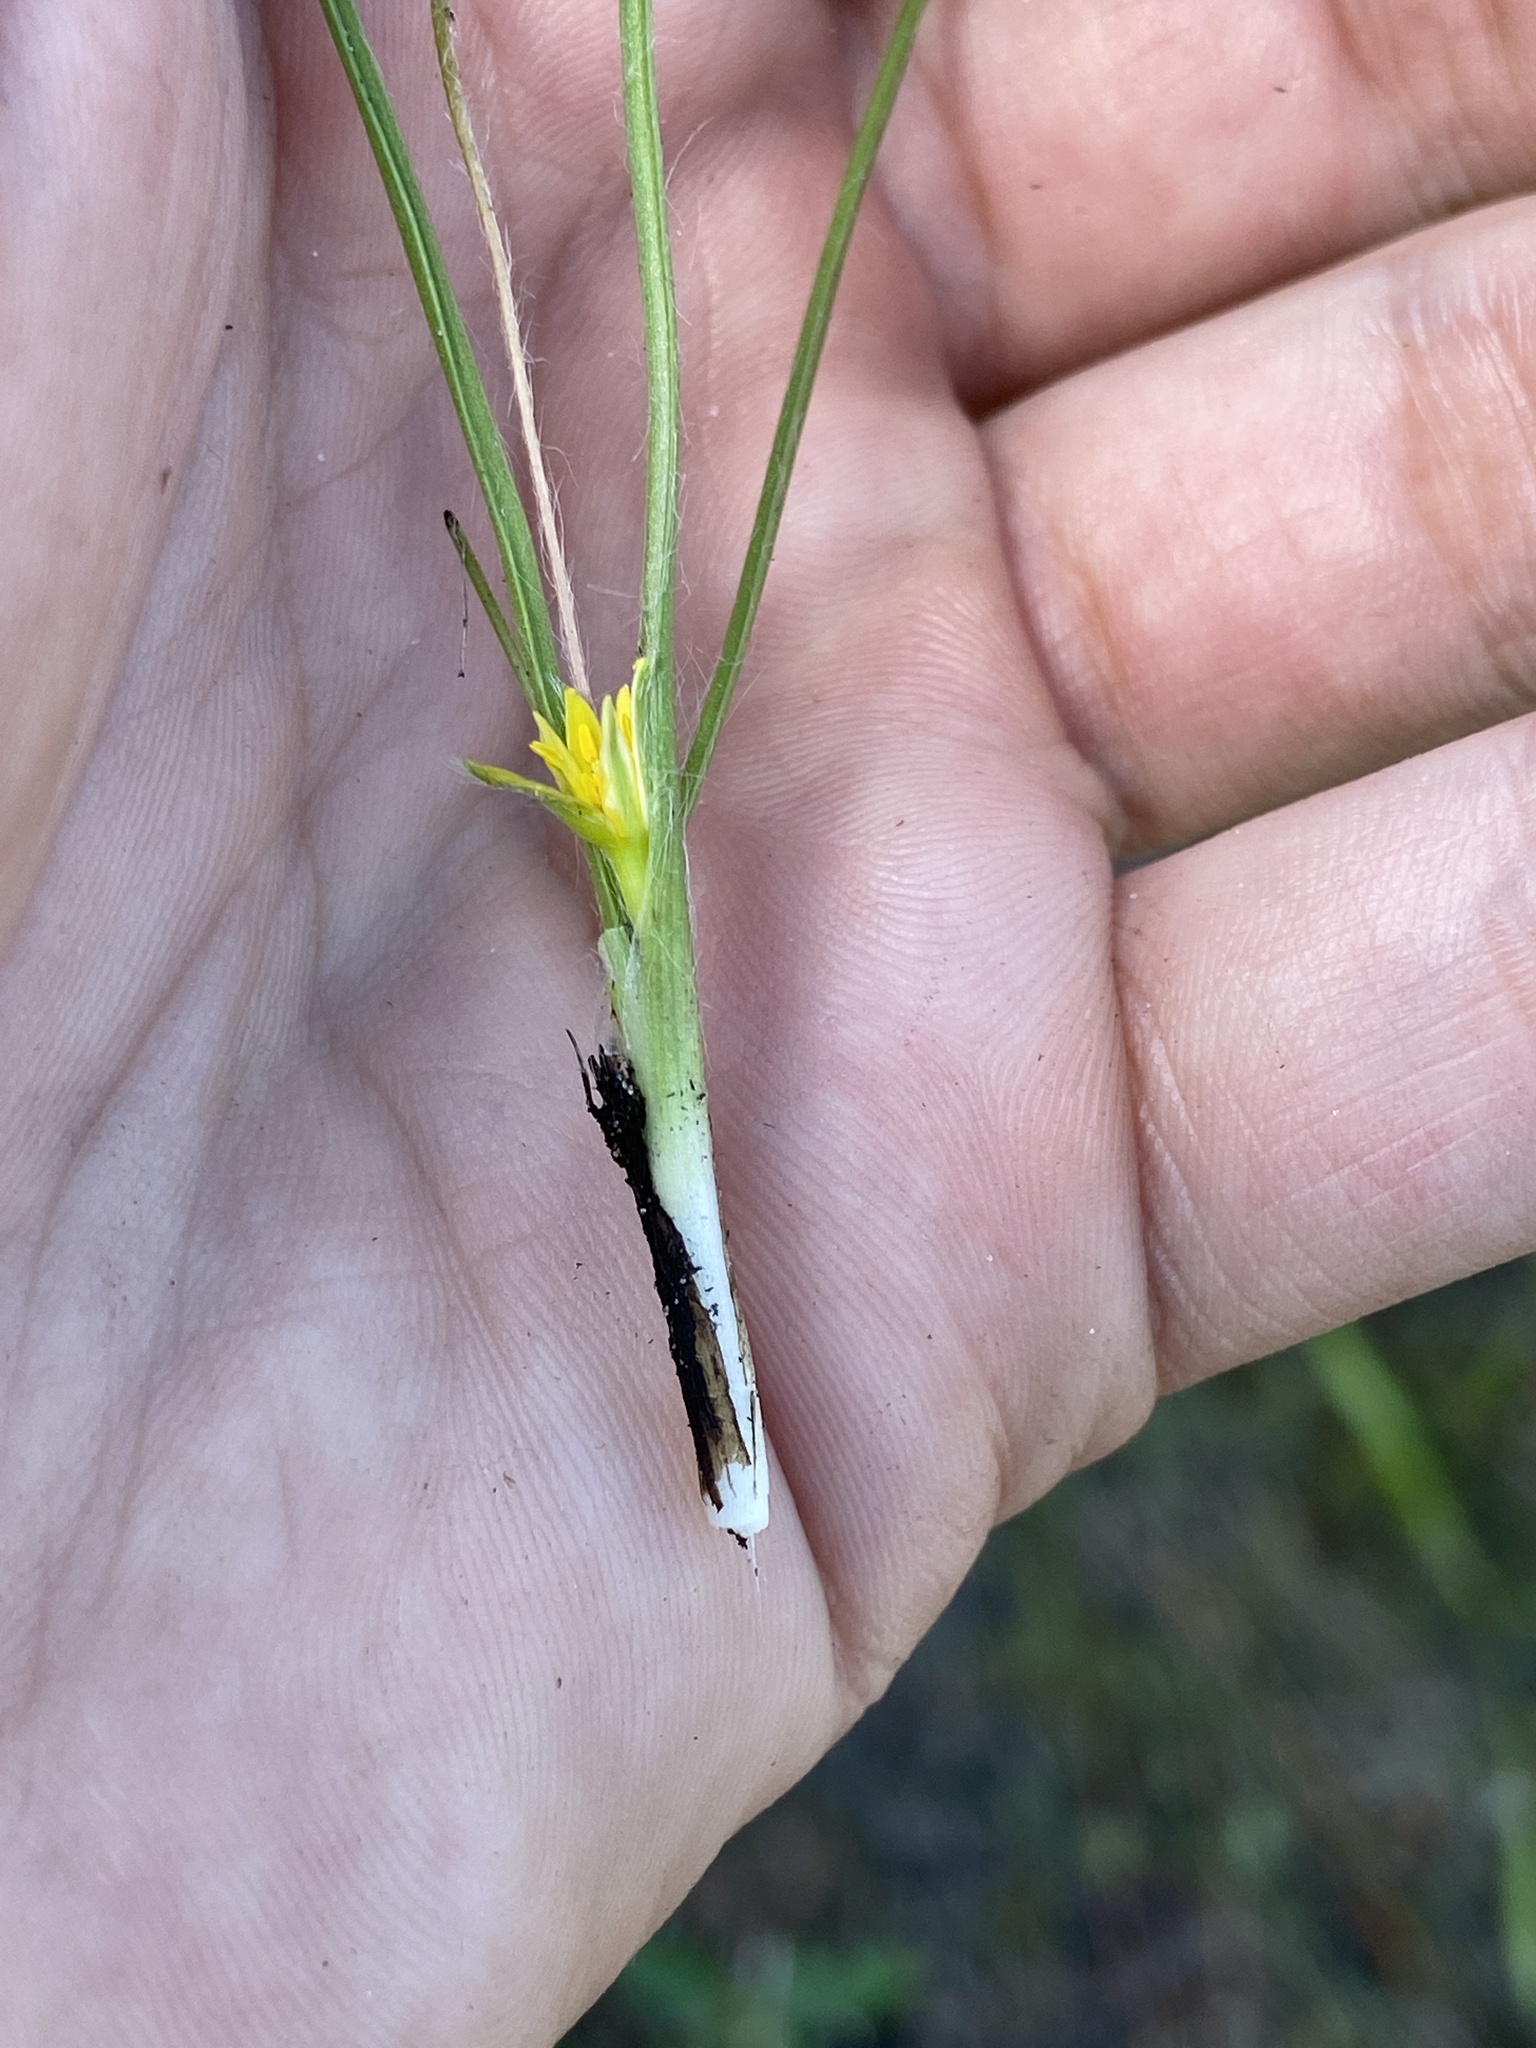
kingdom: Plantae
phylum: Tracheophyta
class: Liliopsida
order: Asparagales
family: Hypoxidaceae
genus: Hypoxis
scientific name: Hypoxis wrightii
